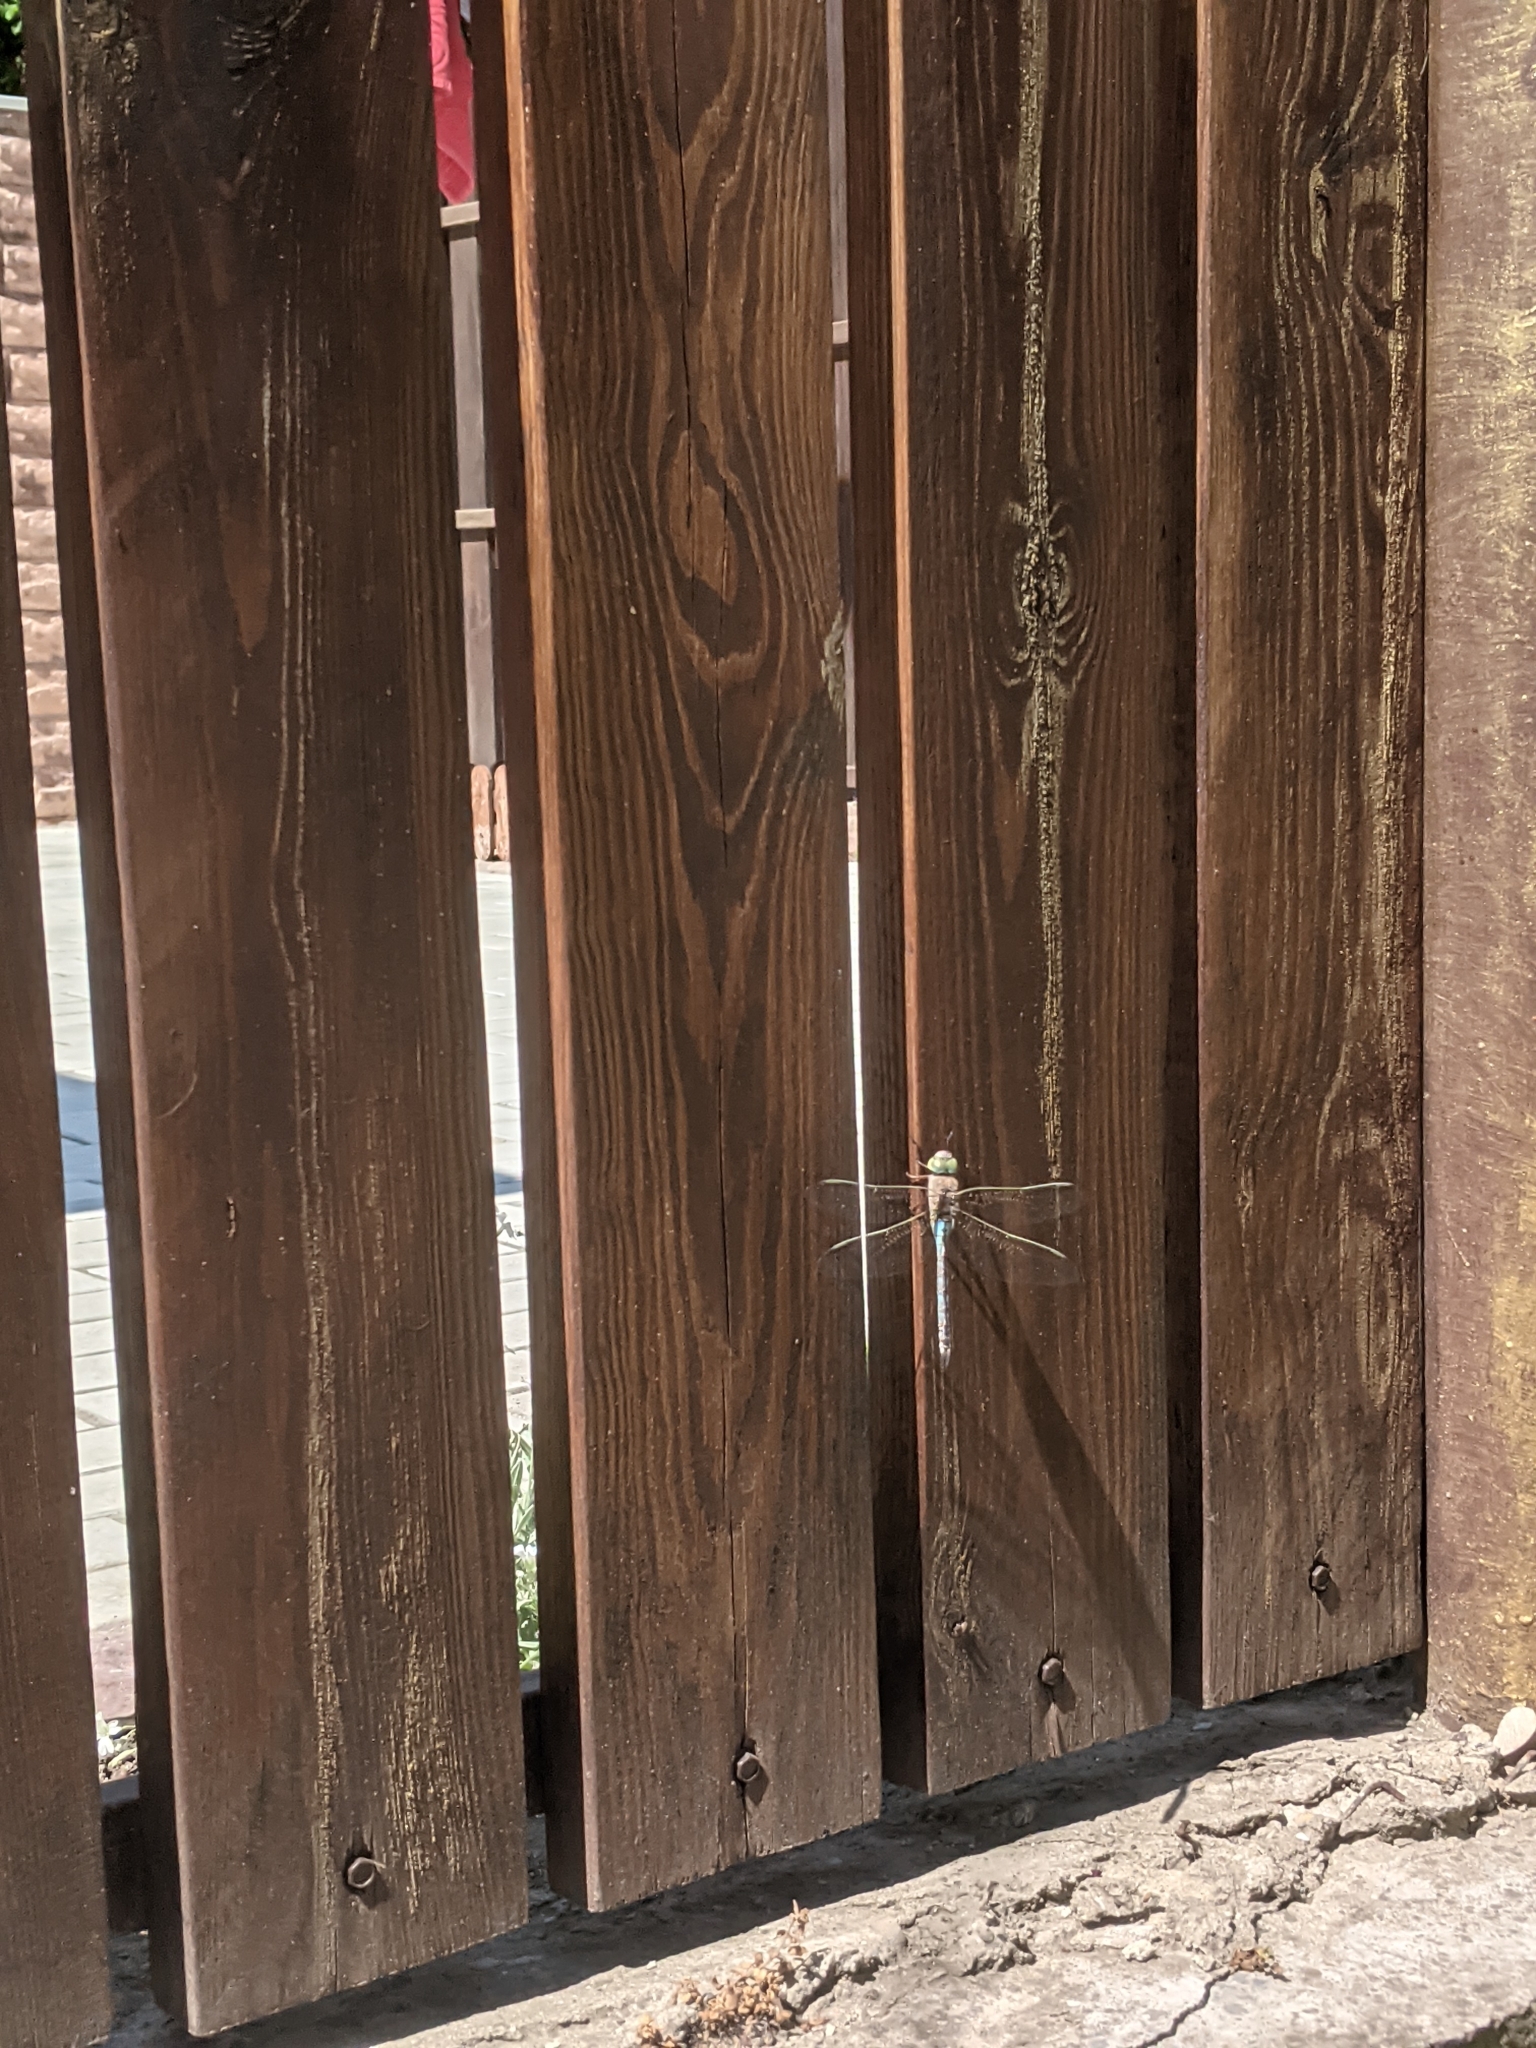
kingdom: Animalia
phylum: Arthropoda
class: Insecta
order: Odonata
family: Aeshnidae
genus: Anax
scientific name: Anax parthenope
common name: Lesser emperor
